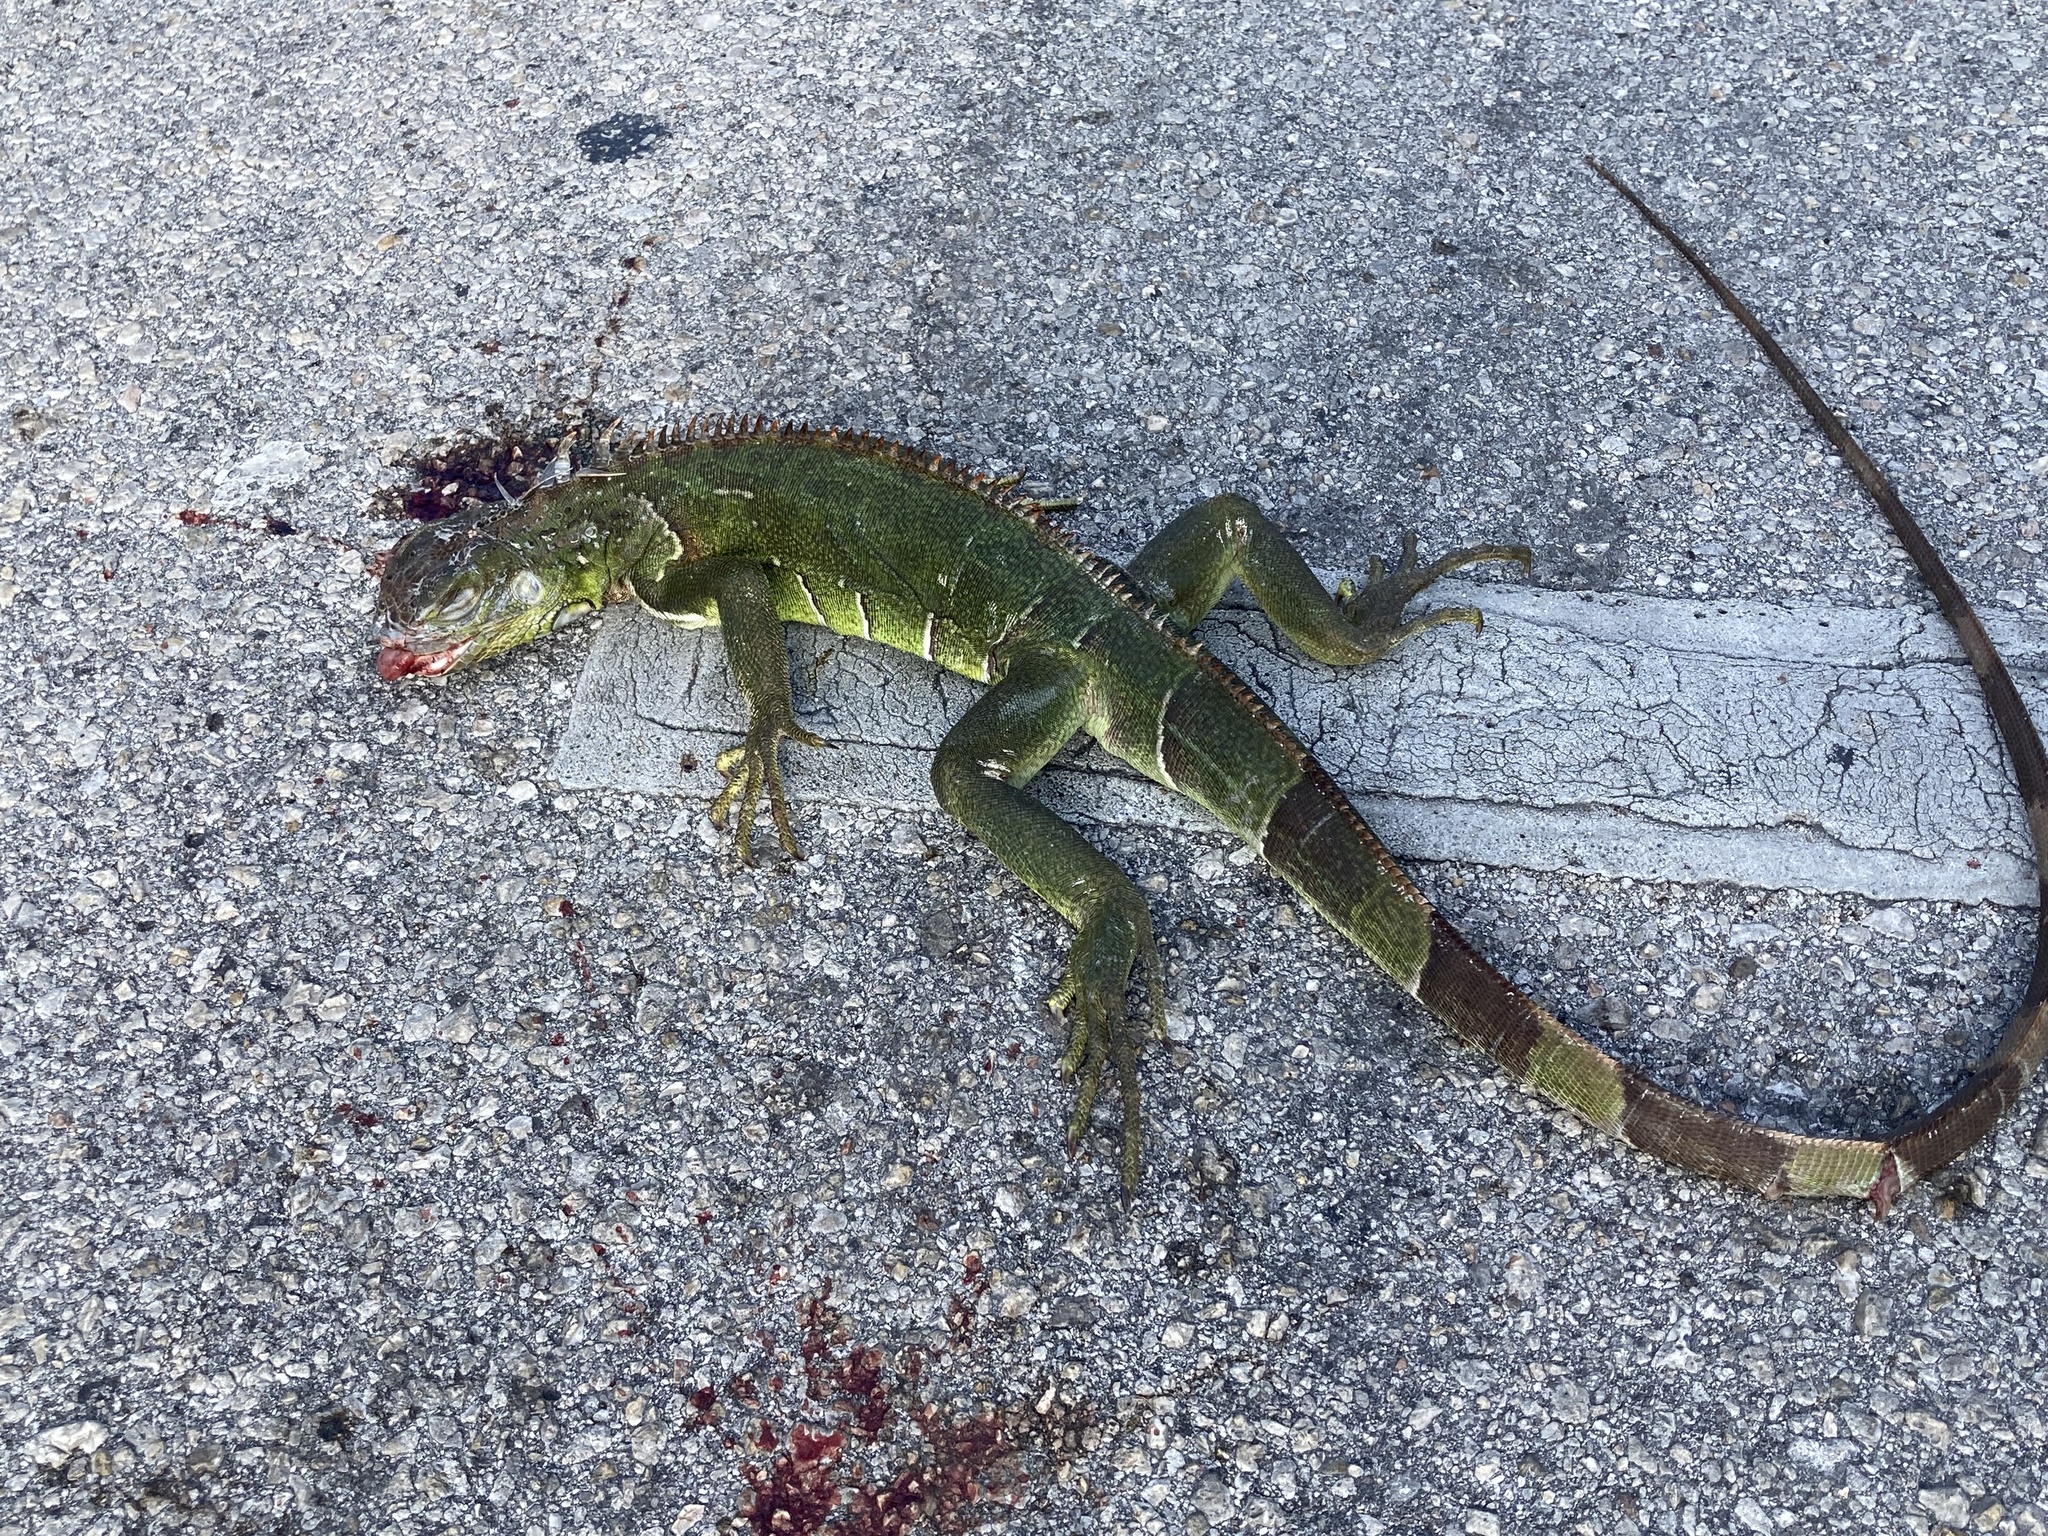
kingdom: Animalia
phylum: Chordata
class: Squamata
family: Iguanidae
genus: Iguana
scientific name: Iguana iguana
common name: Green iguana
